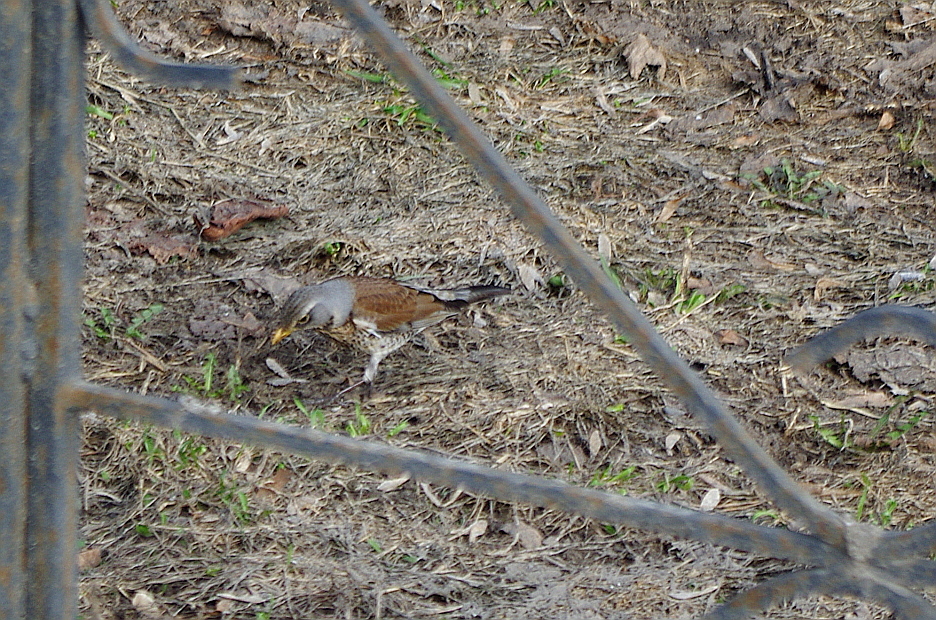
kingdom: Animalia
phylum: Chordata
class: Aves
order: Passeriformes
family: Turdidae
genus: Turdus
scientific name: Turdus pilaris
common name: Fieldfare
